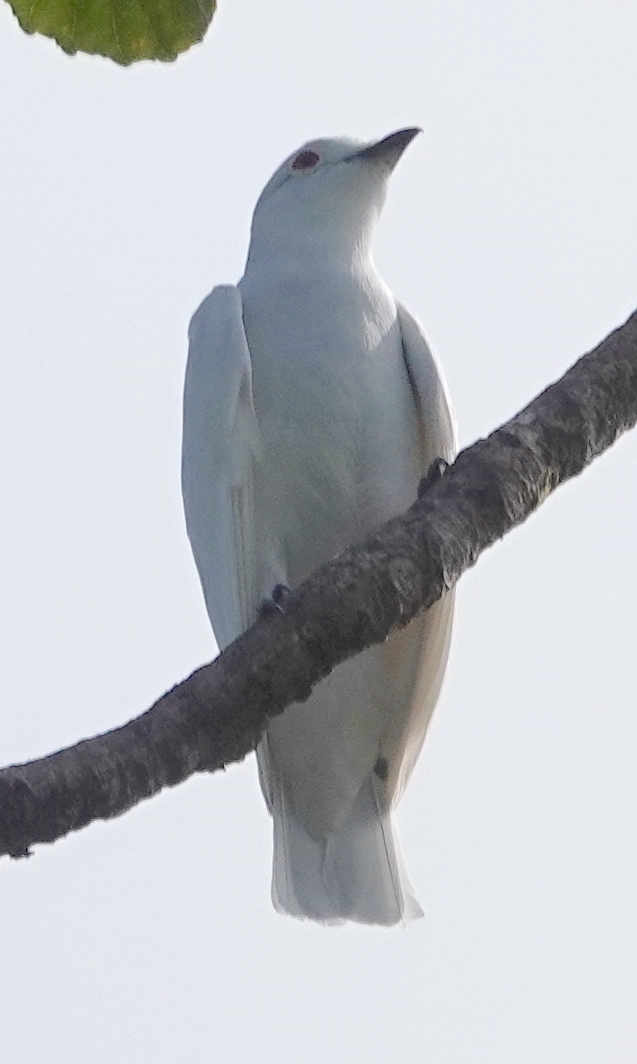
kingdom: Animalia
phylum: Chordata
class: Aves
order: Passeriformes
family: Cotingidae
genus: Carpodectes
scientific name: Carpodectes hopkei
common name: Black-tipped cotinga
